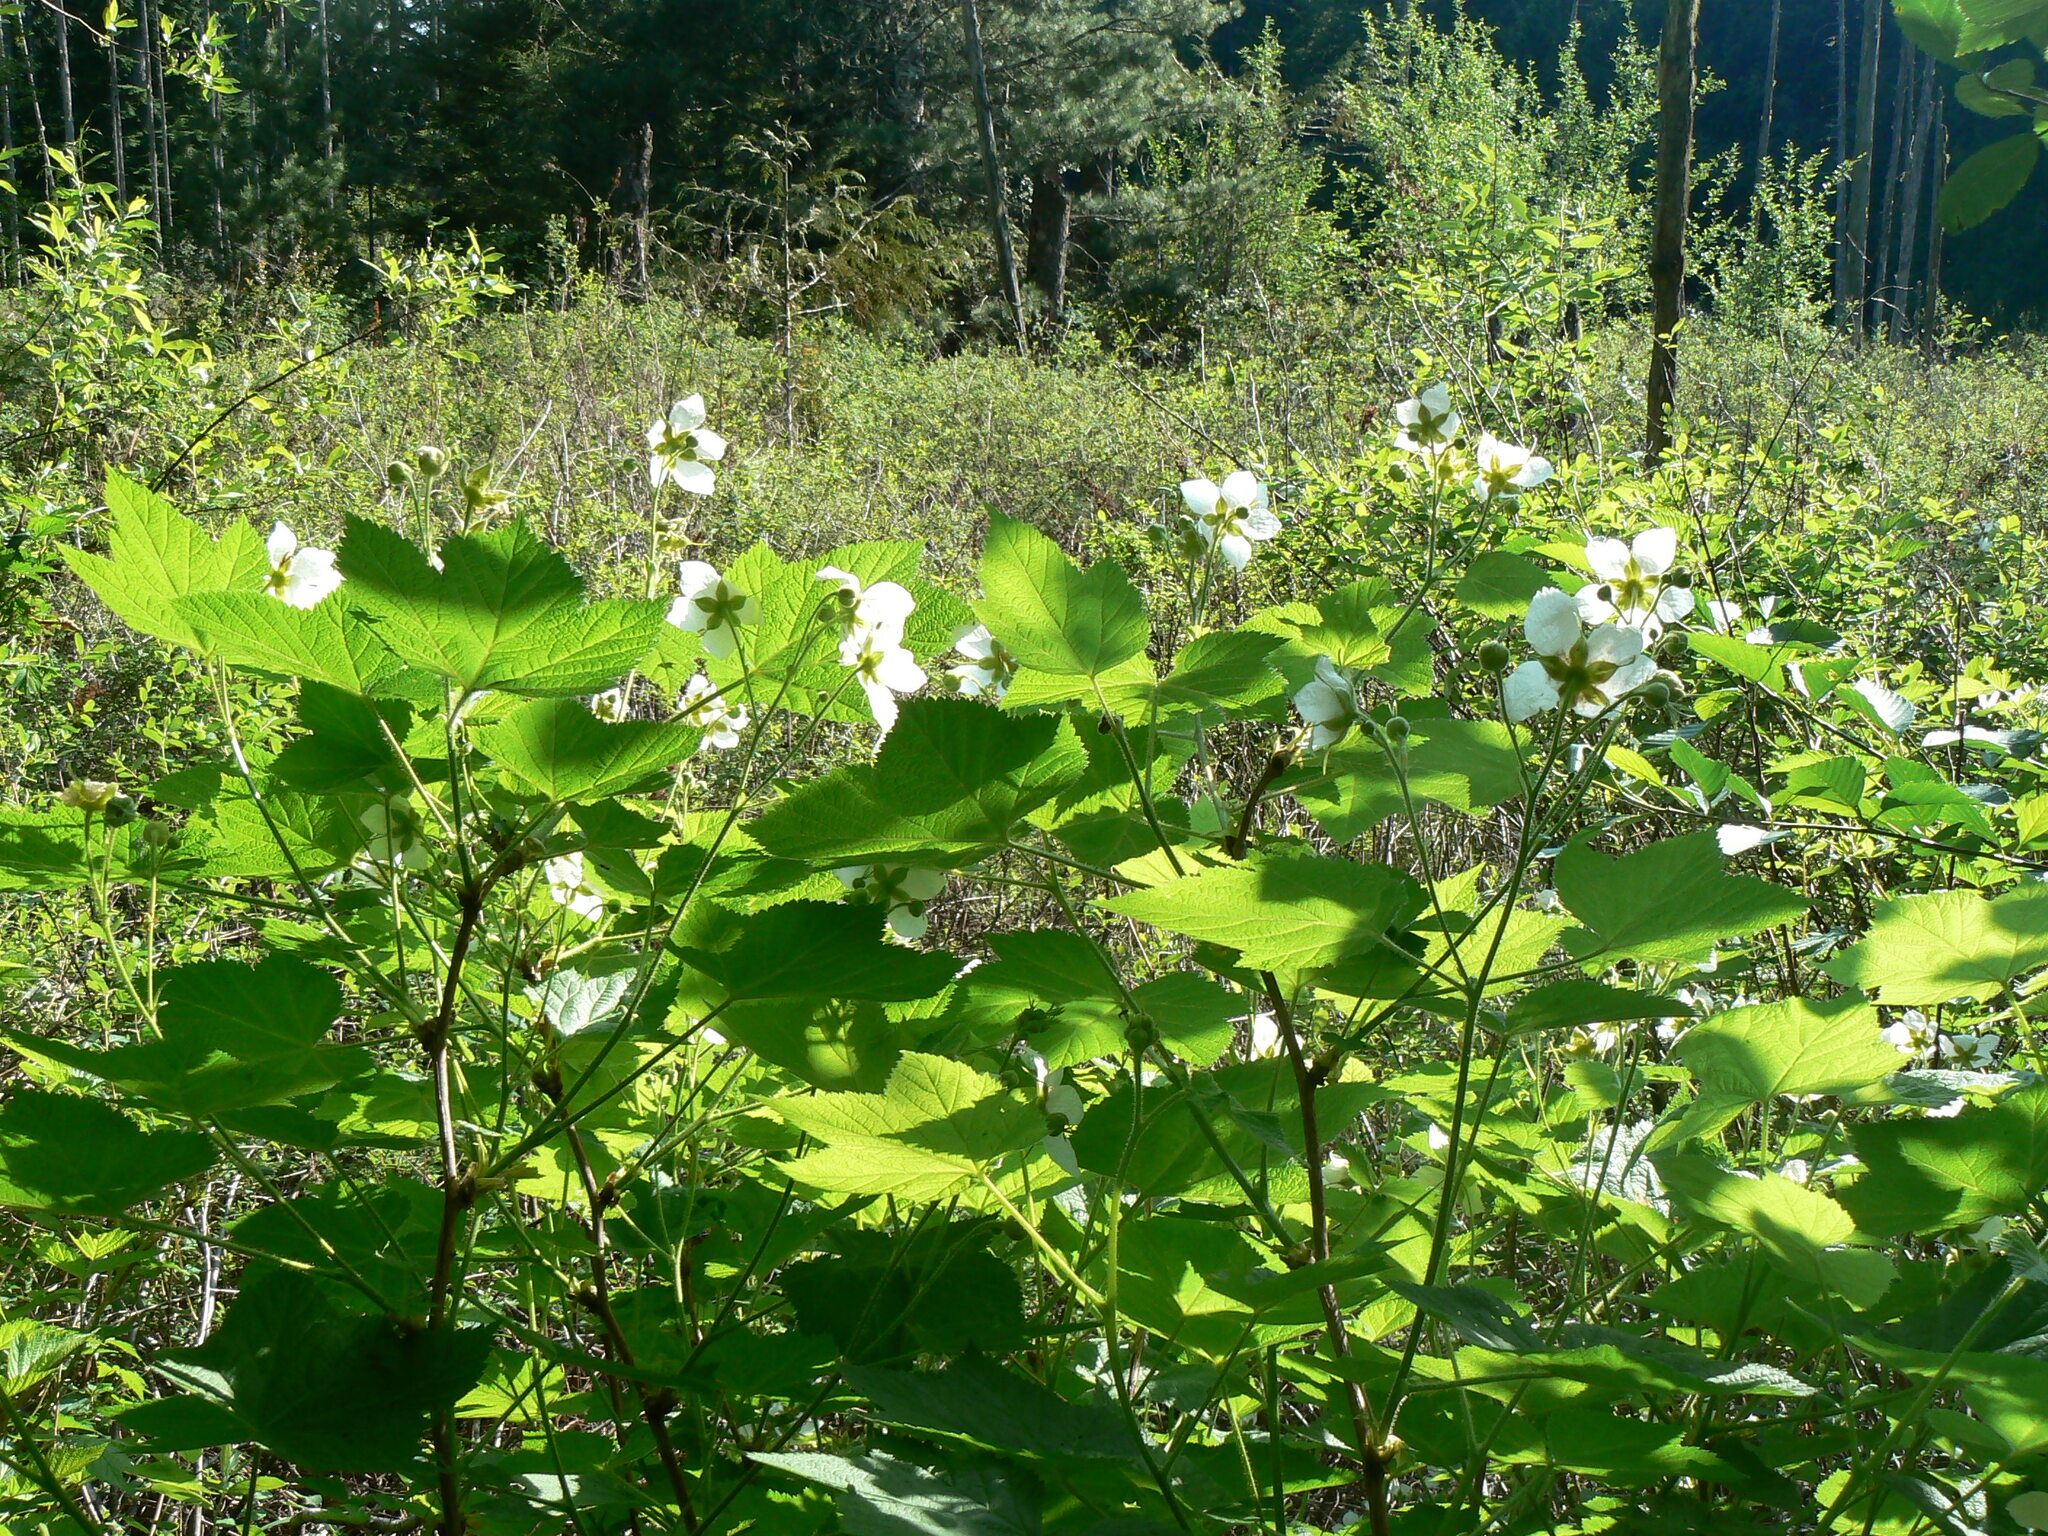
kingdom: Plantae
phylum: Tracheophyta
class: Magnoliopsida
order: Rosales
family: Rosaceae
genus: Rubus
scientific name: Rubus parviflorus
